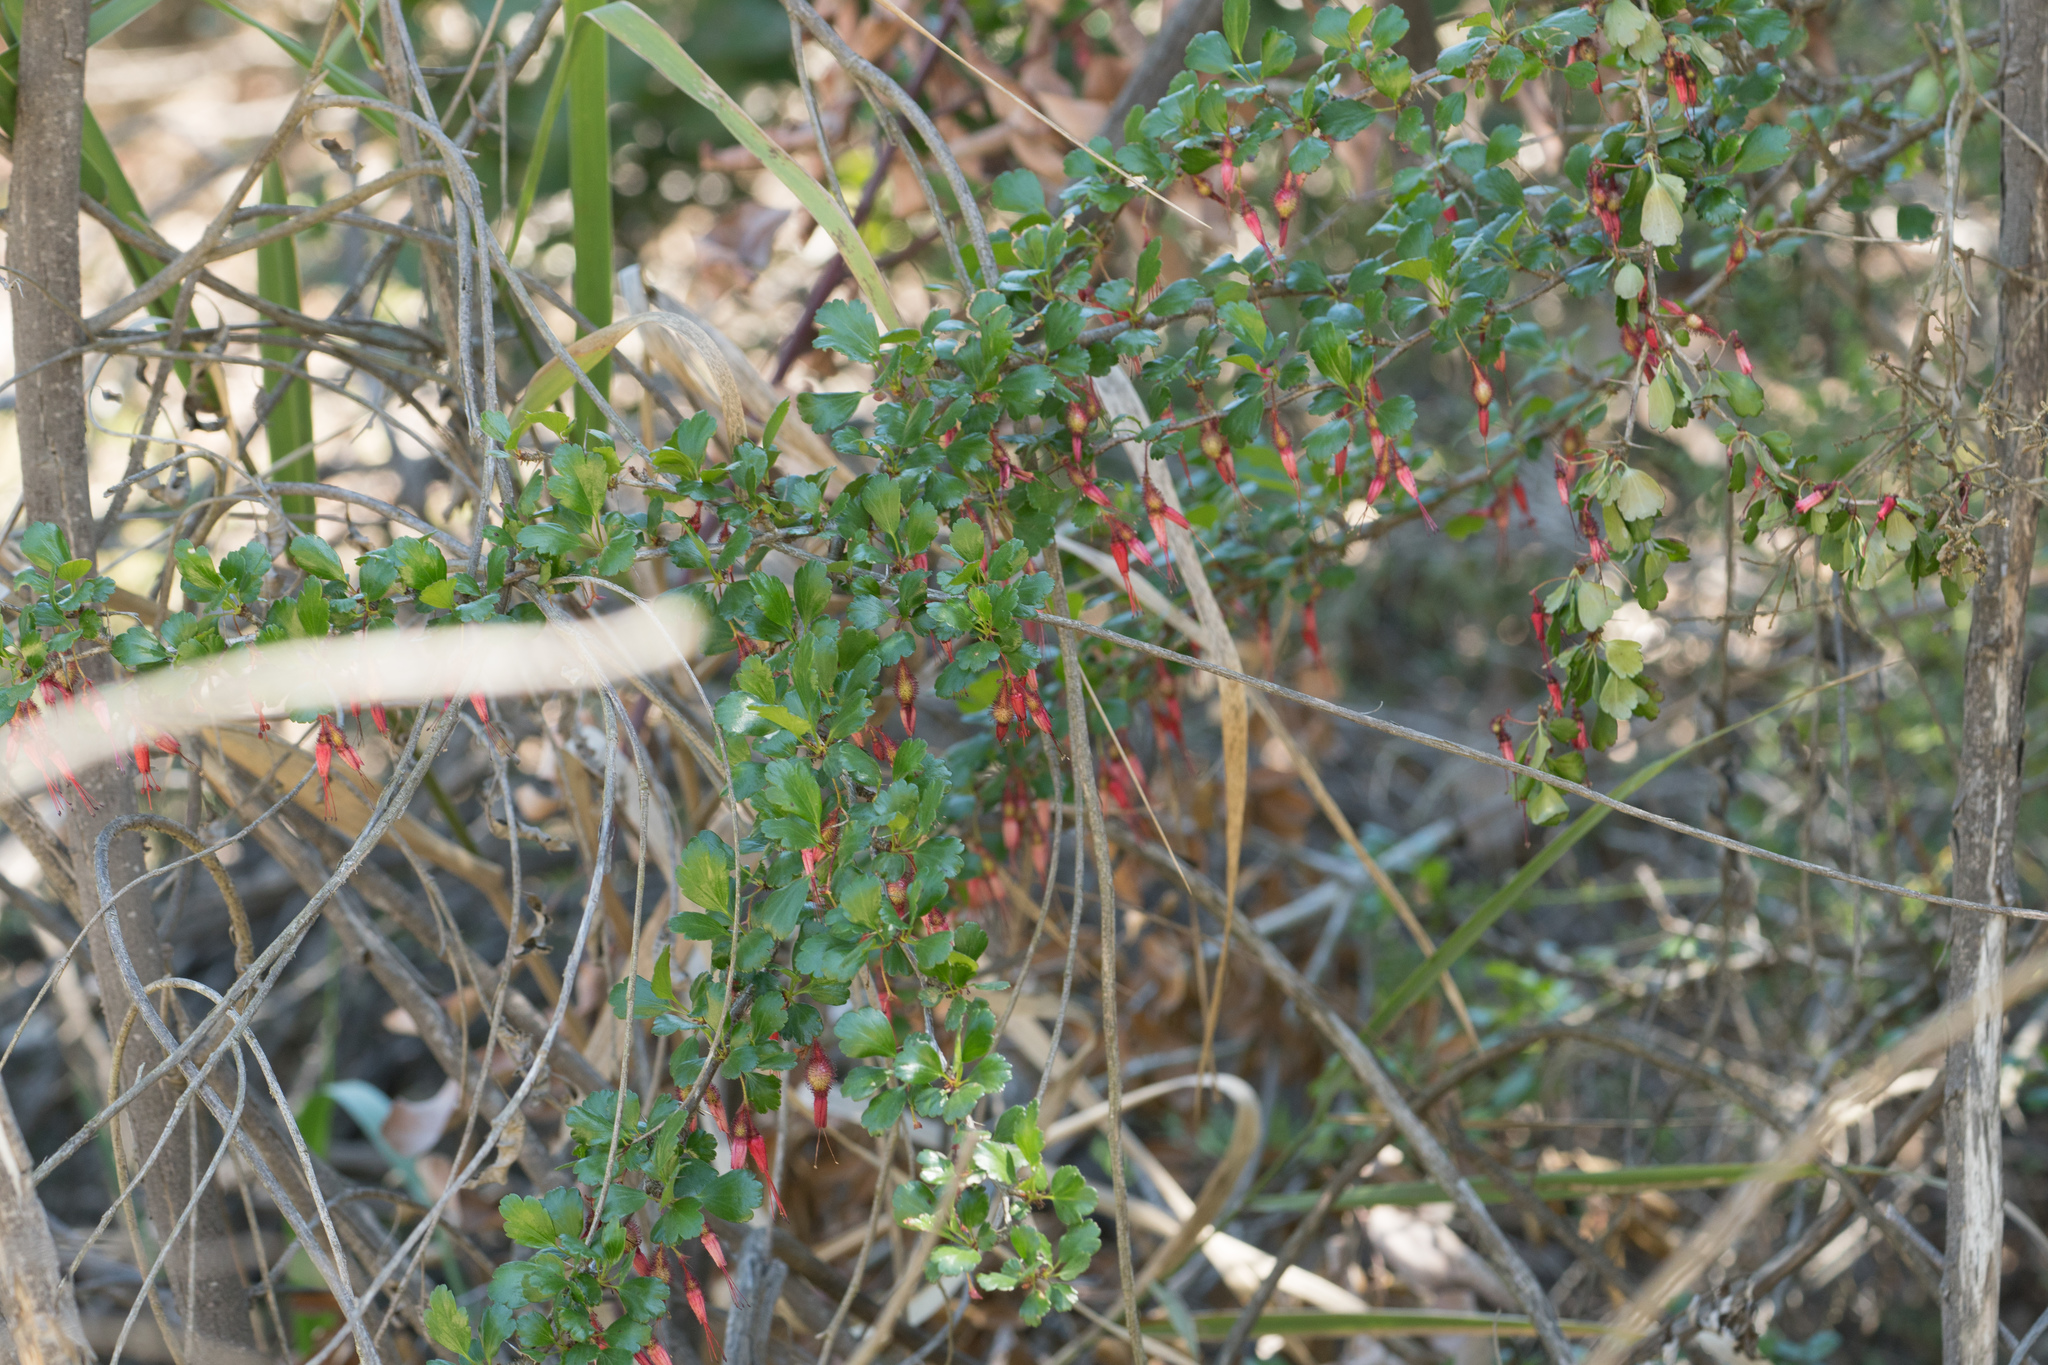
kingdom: Plantae
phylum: Tracheophyta
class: Magnoliopsida
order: Saxifragales
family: Grossulariaceae
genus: Ribes
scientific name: Ribes speciosum
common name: Fuchsia-flower gooseberry
